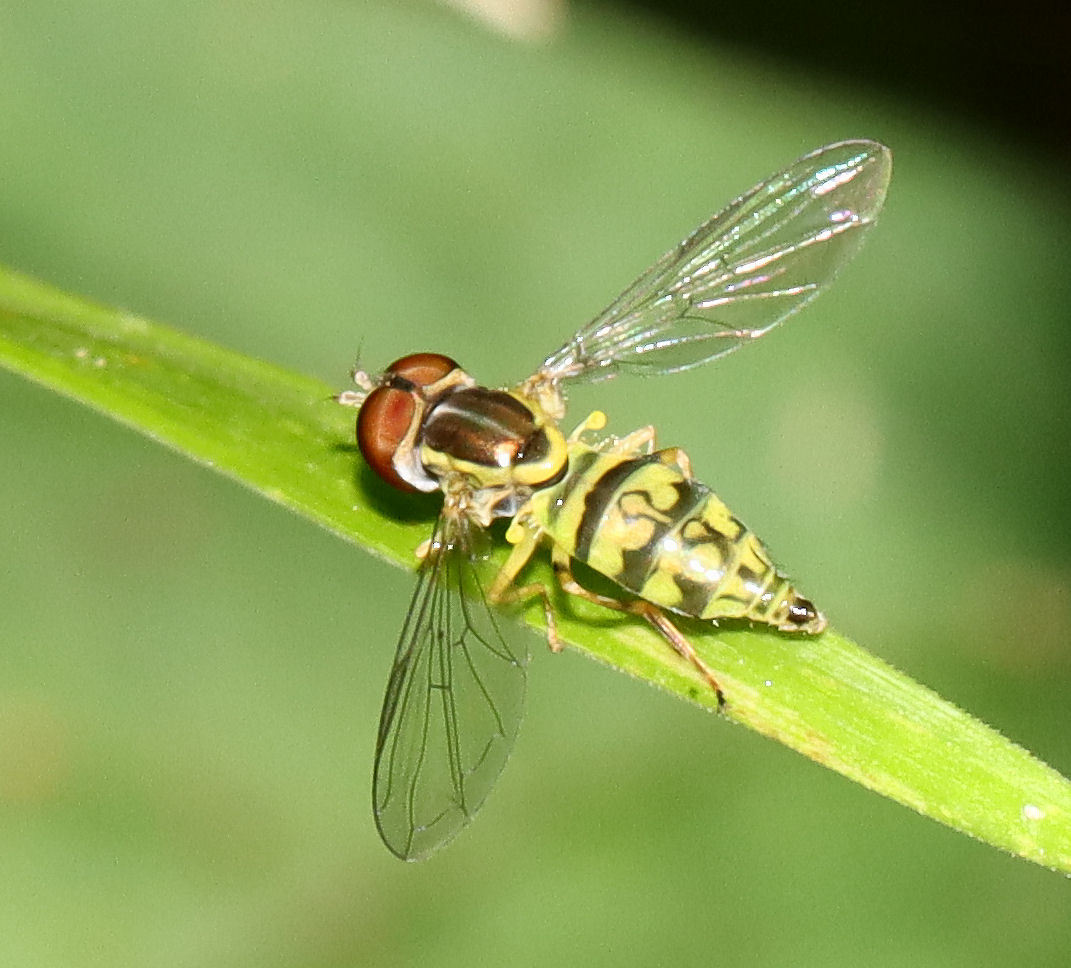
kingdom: Animalia
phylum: Arthropoda
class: Insecta
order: Diptera
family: Syrphidae
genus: Toxomerus
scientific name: Toxomerus geminatus
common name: Eastern calligrapher
